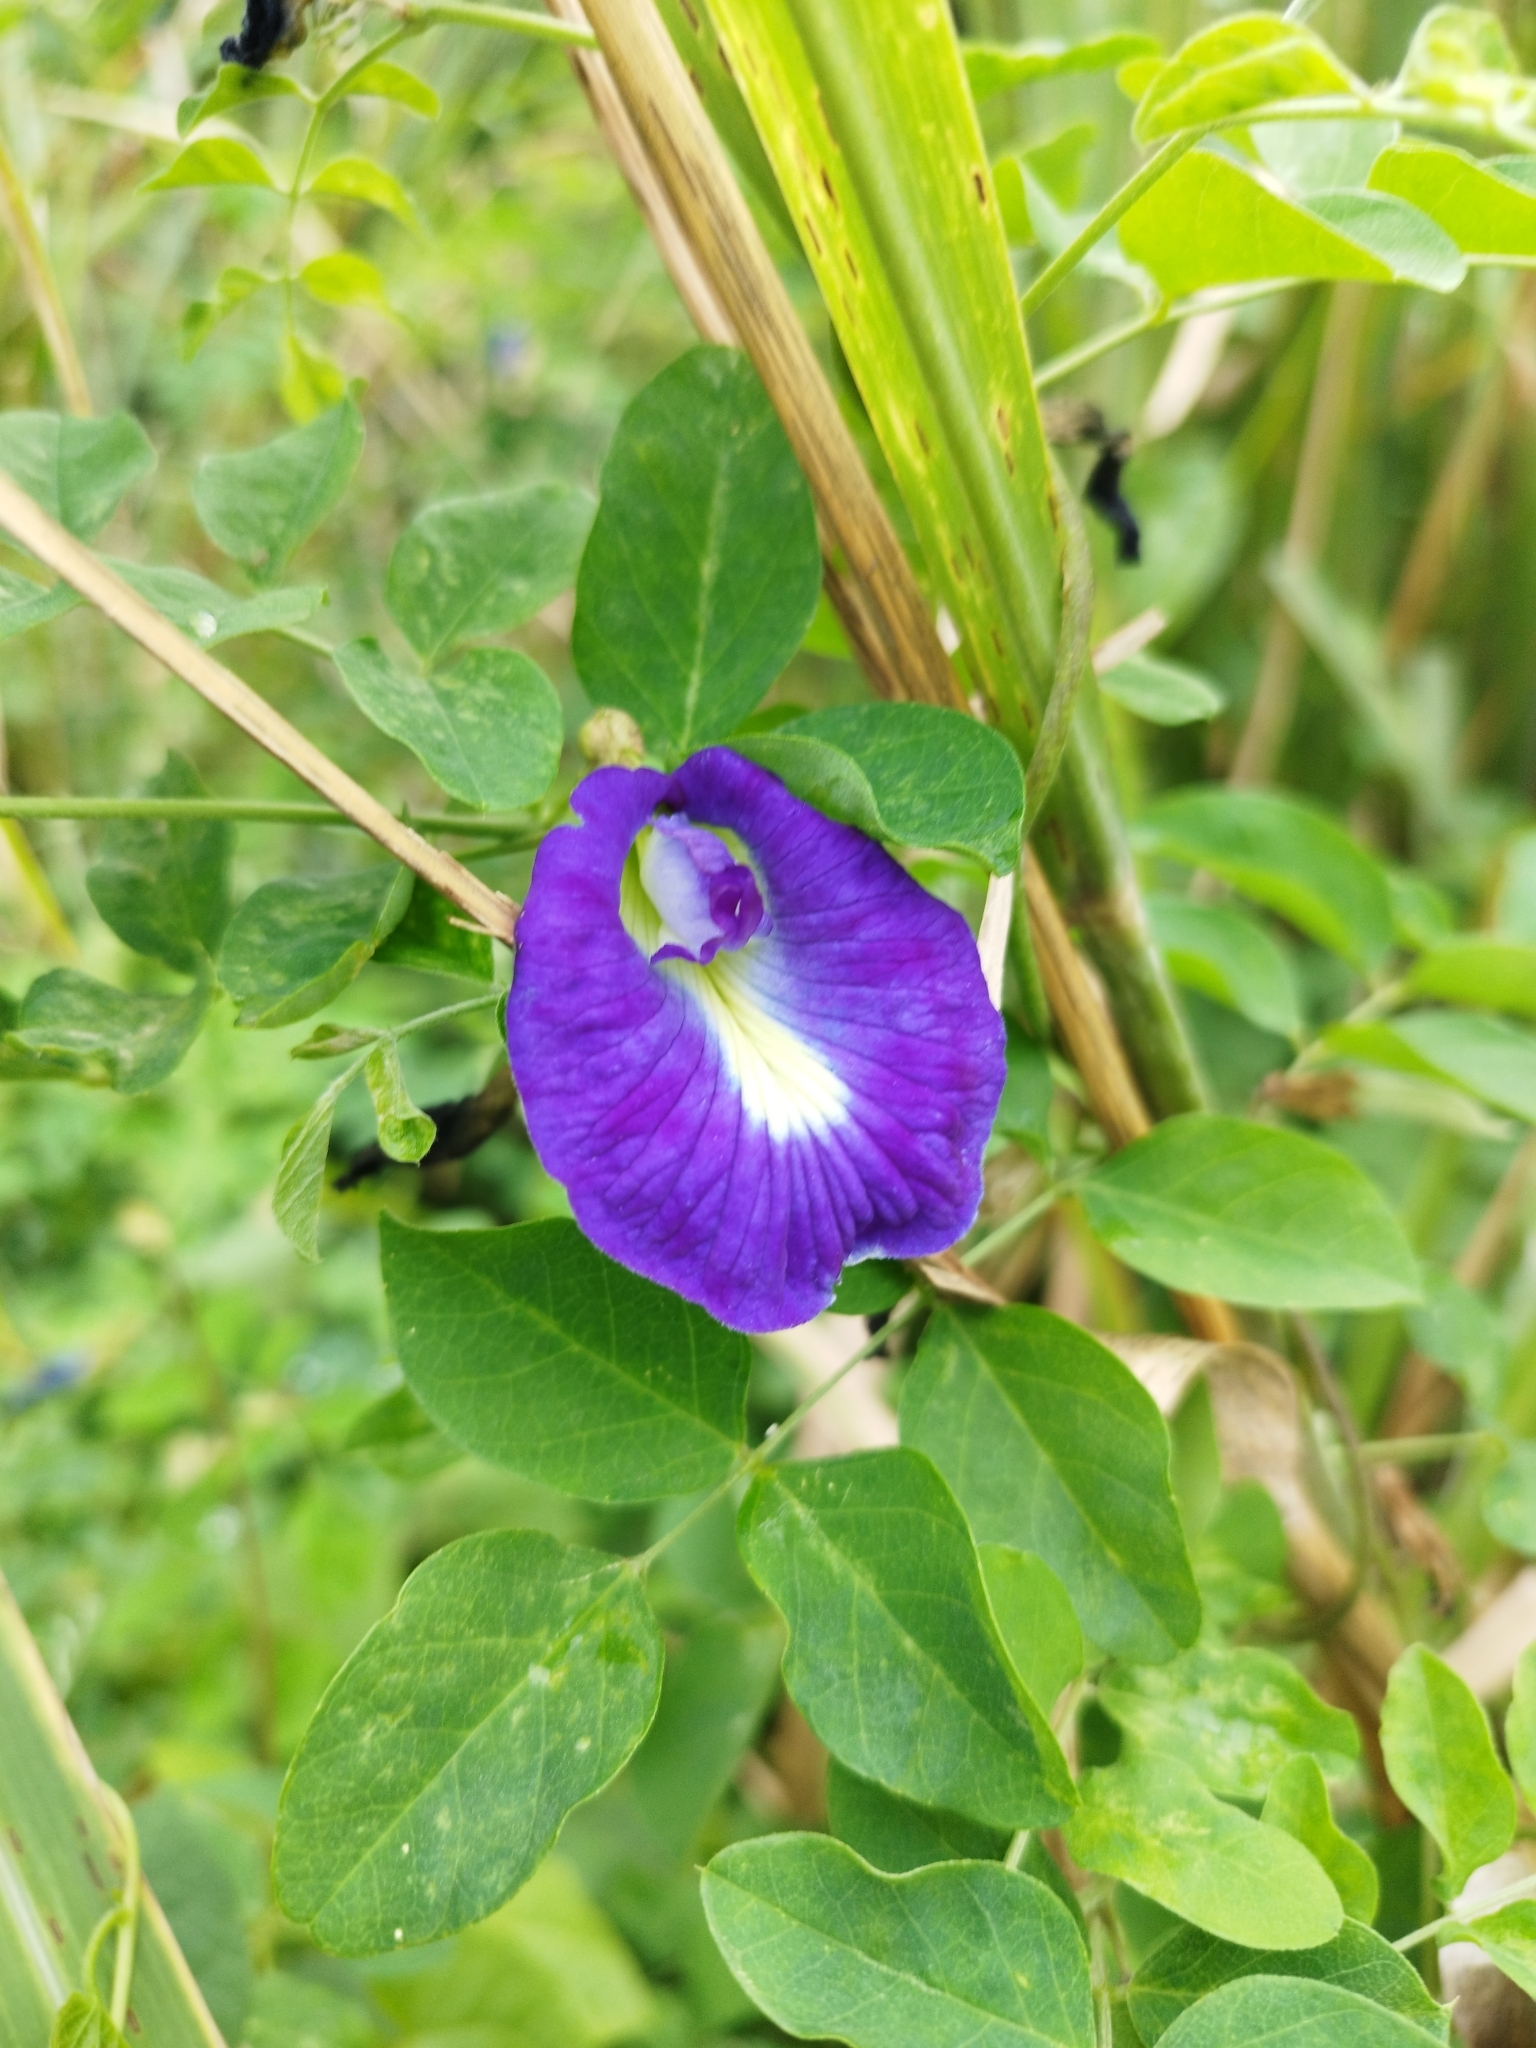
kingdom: Plantae
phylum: Tracheophyta
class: Magnoliopsida
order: Fabales
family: Fabaceae
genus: Clitoria
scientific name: Clitoria ternatea
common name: Asian pigeonwings
